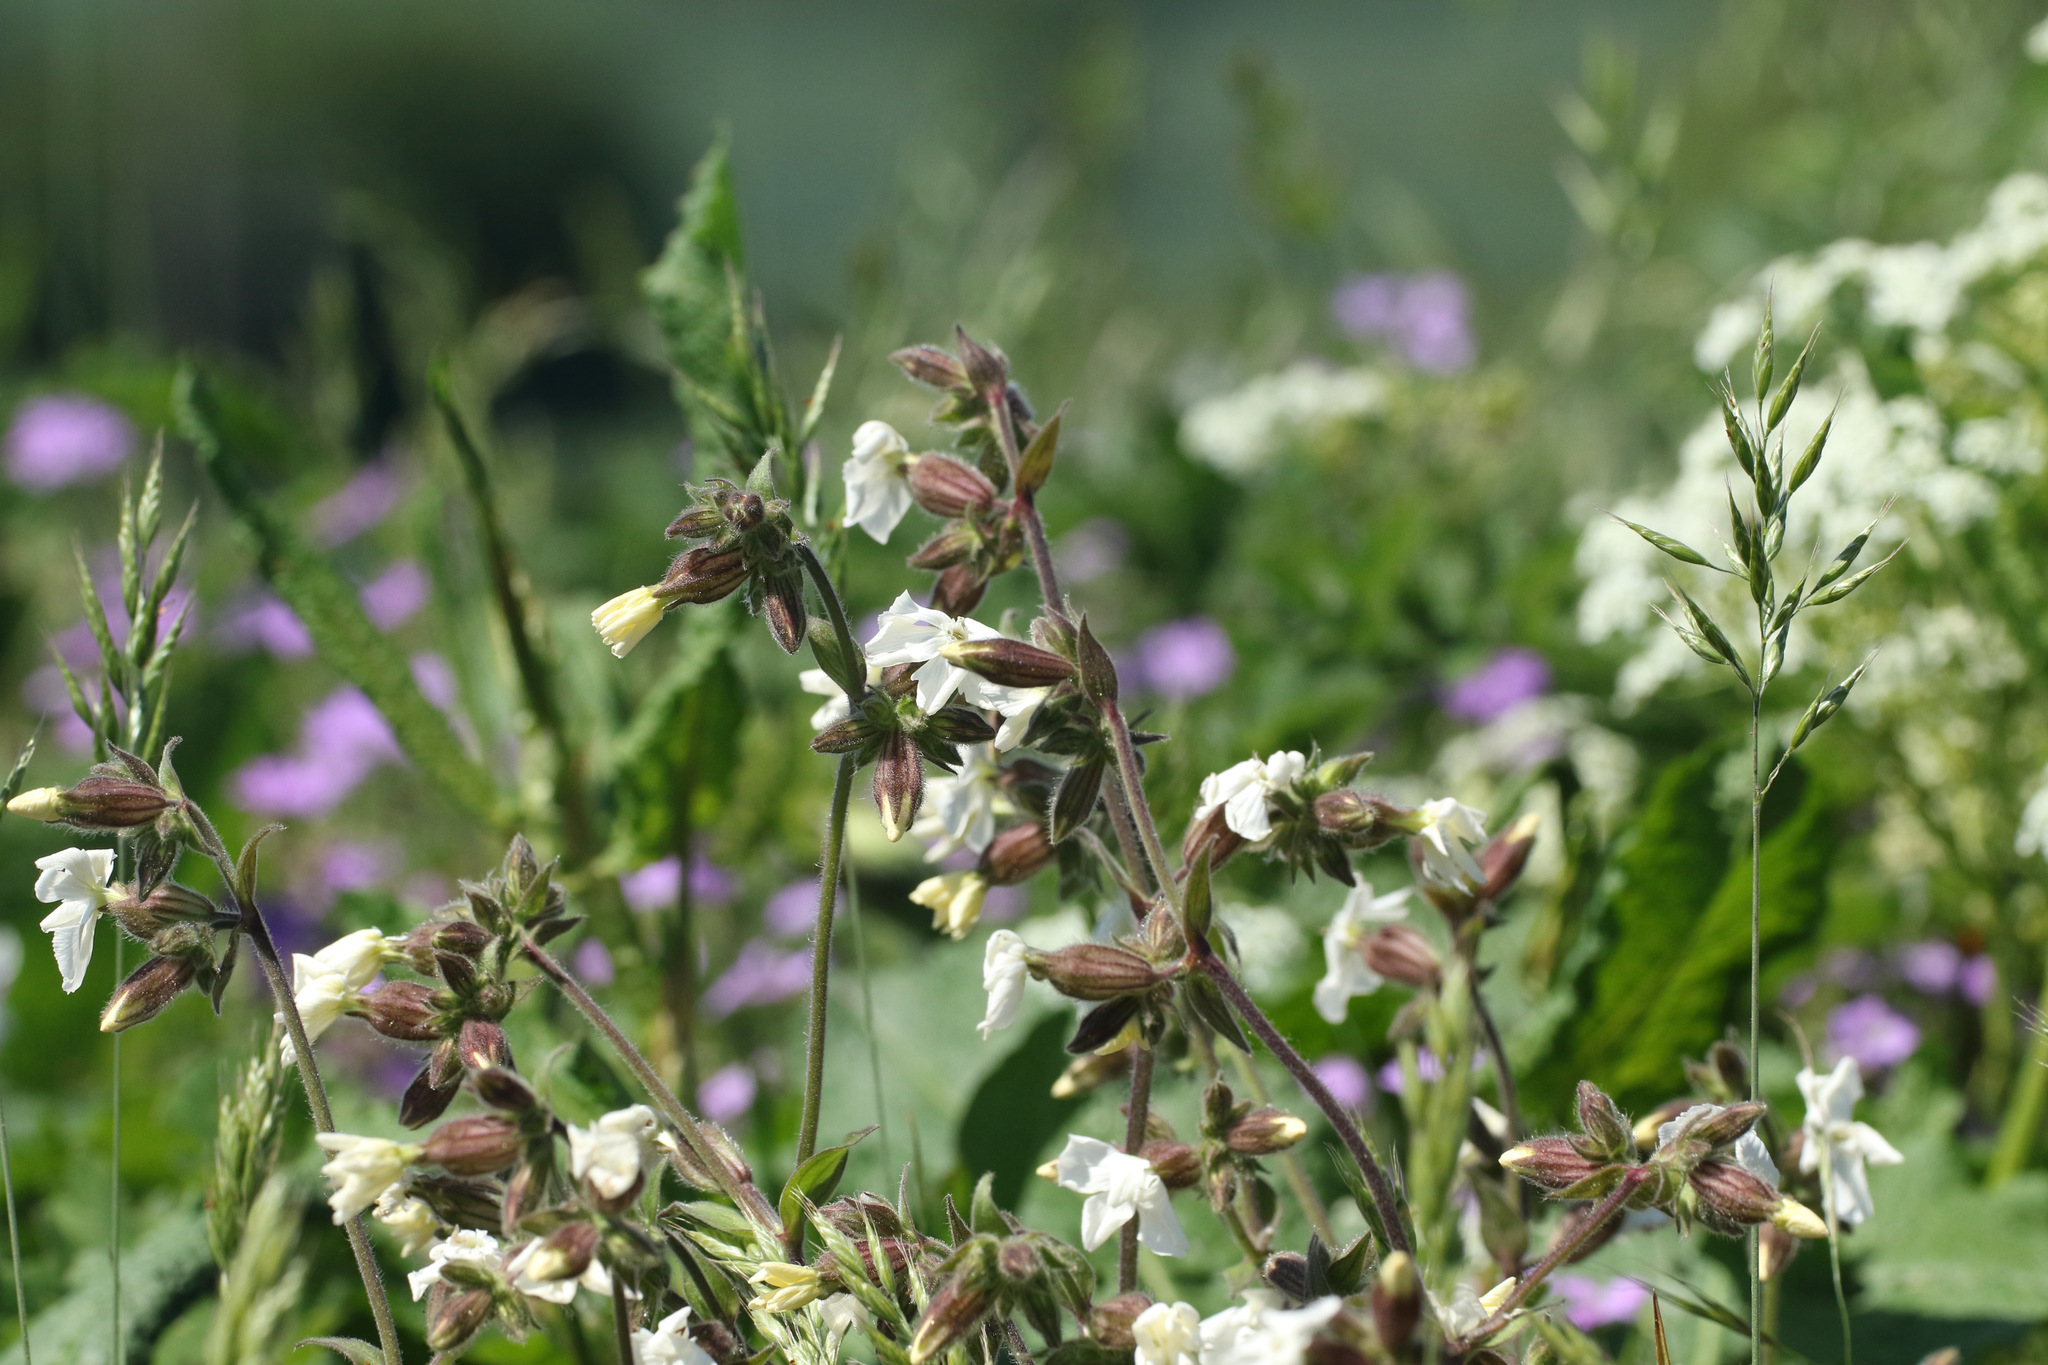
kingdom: Plantae
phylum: Tracheophyta
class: Magnoliopsida
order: Caryophyllales
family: Caryophyllaceae
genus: Silene
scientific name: Silene latifolia
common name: White campion
